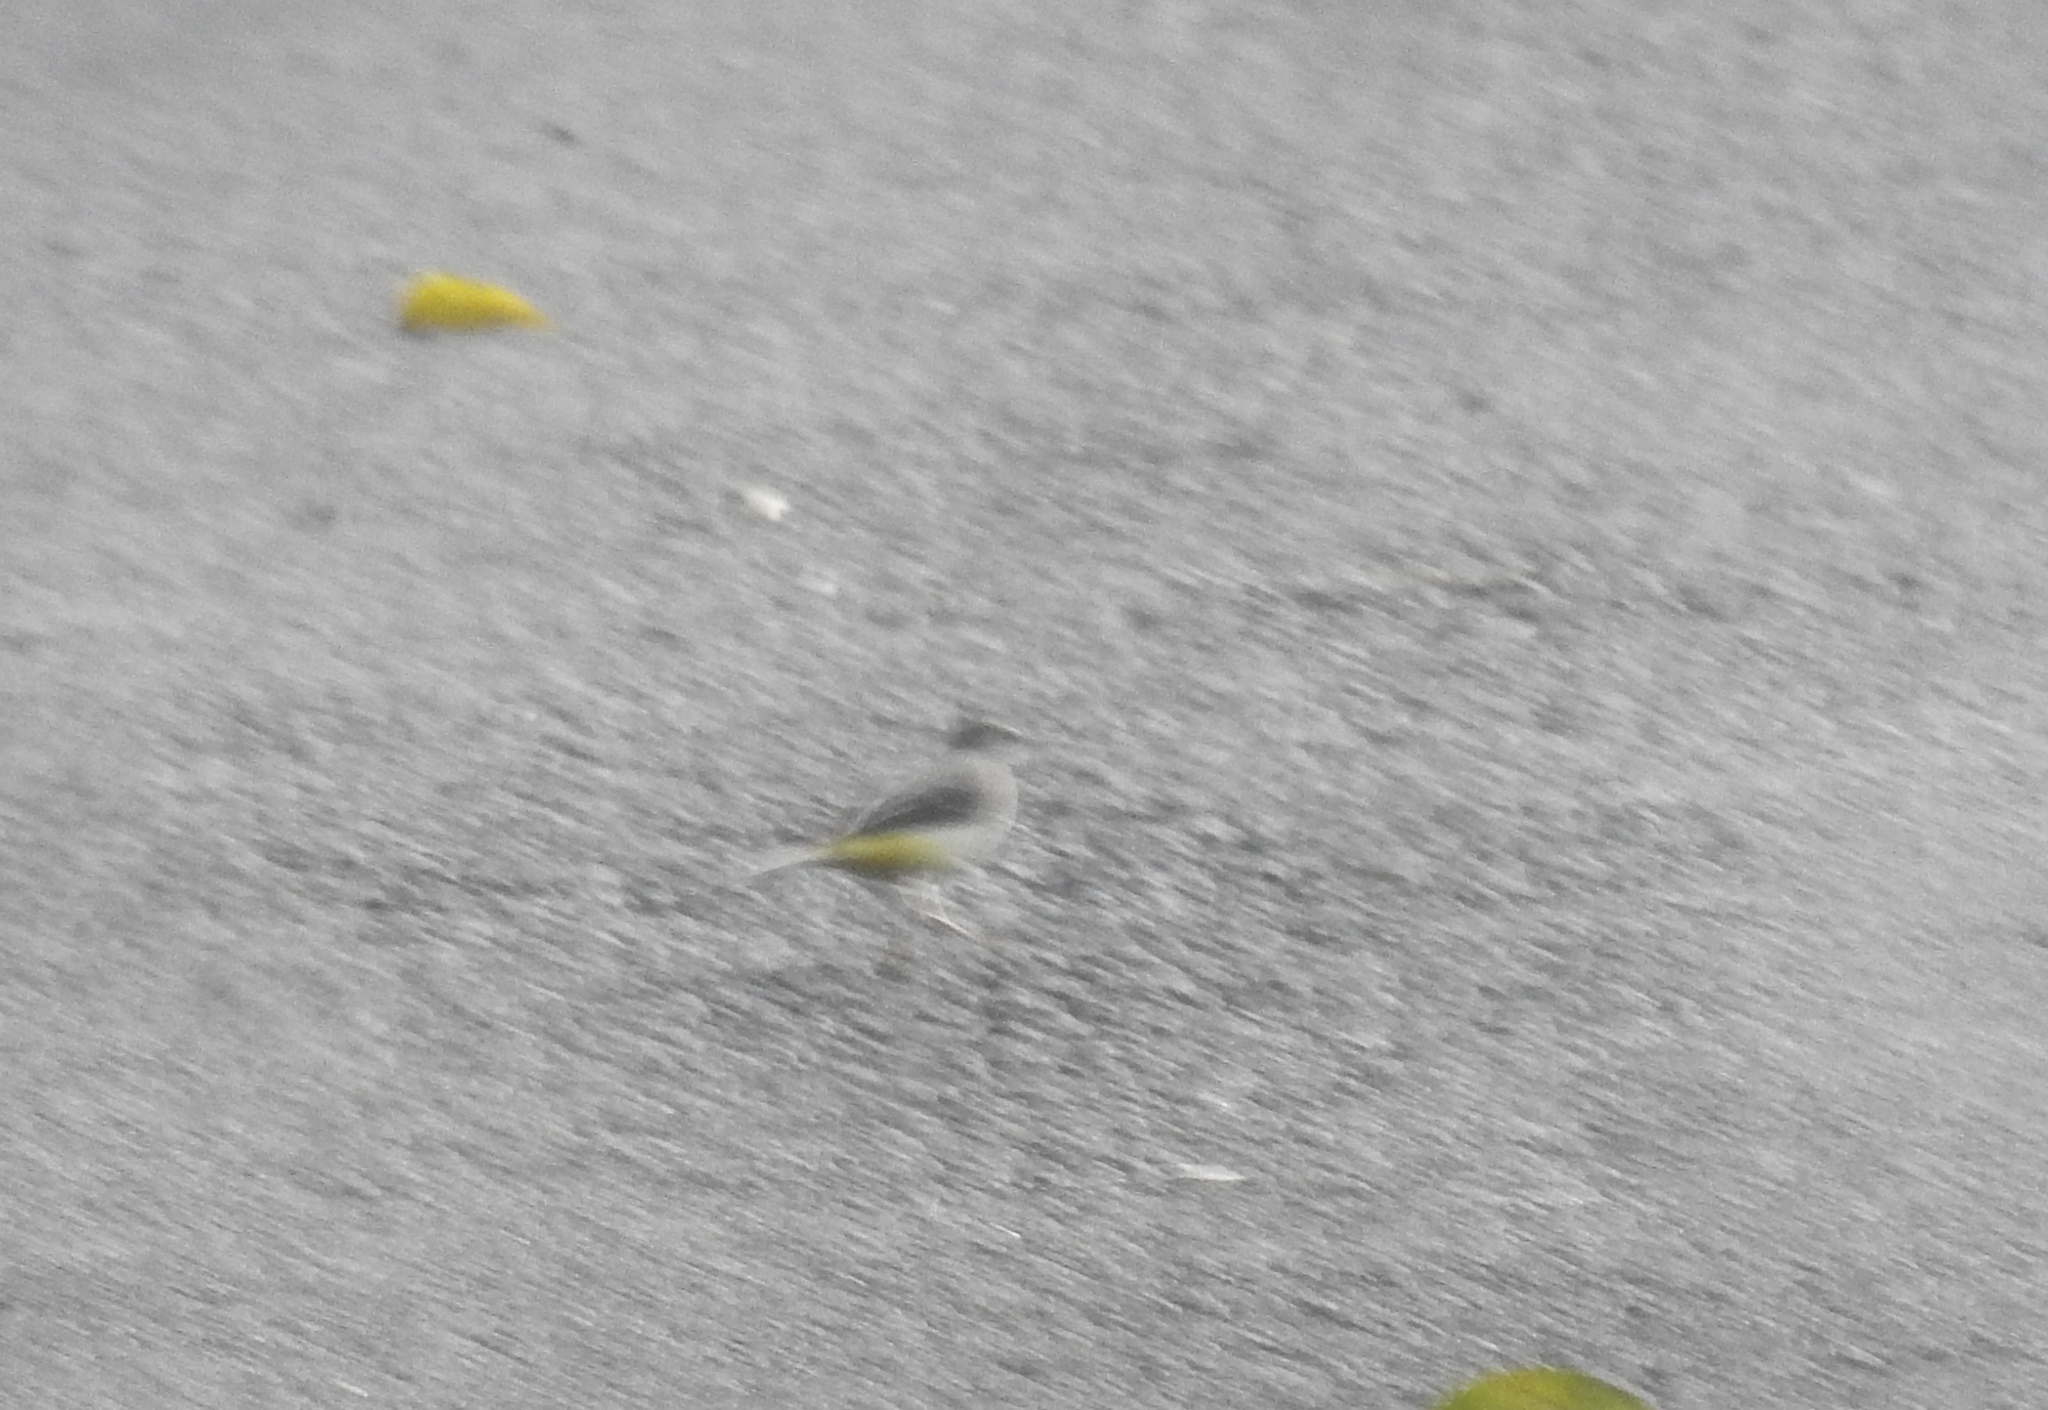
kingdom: Animalia
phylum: Chordata
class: Aves
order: Passeriformes
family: Motacillidae
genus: Motacilla
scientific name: Motacilla cinerea
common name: Grey wagtail
